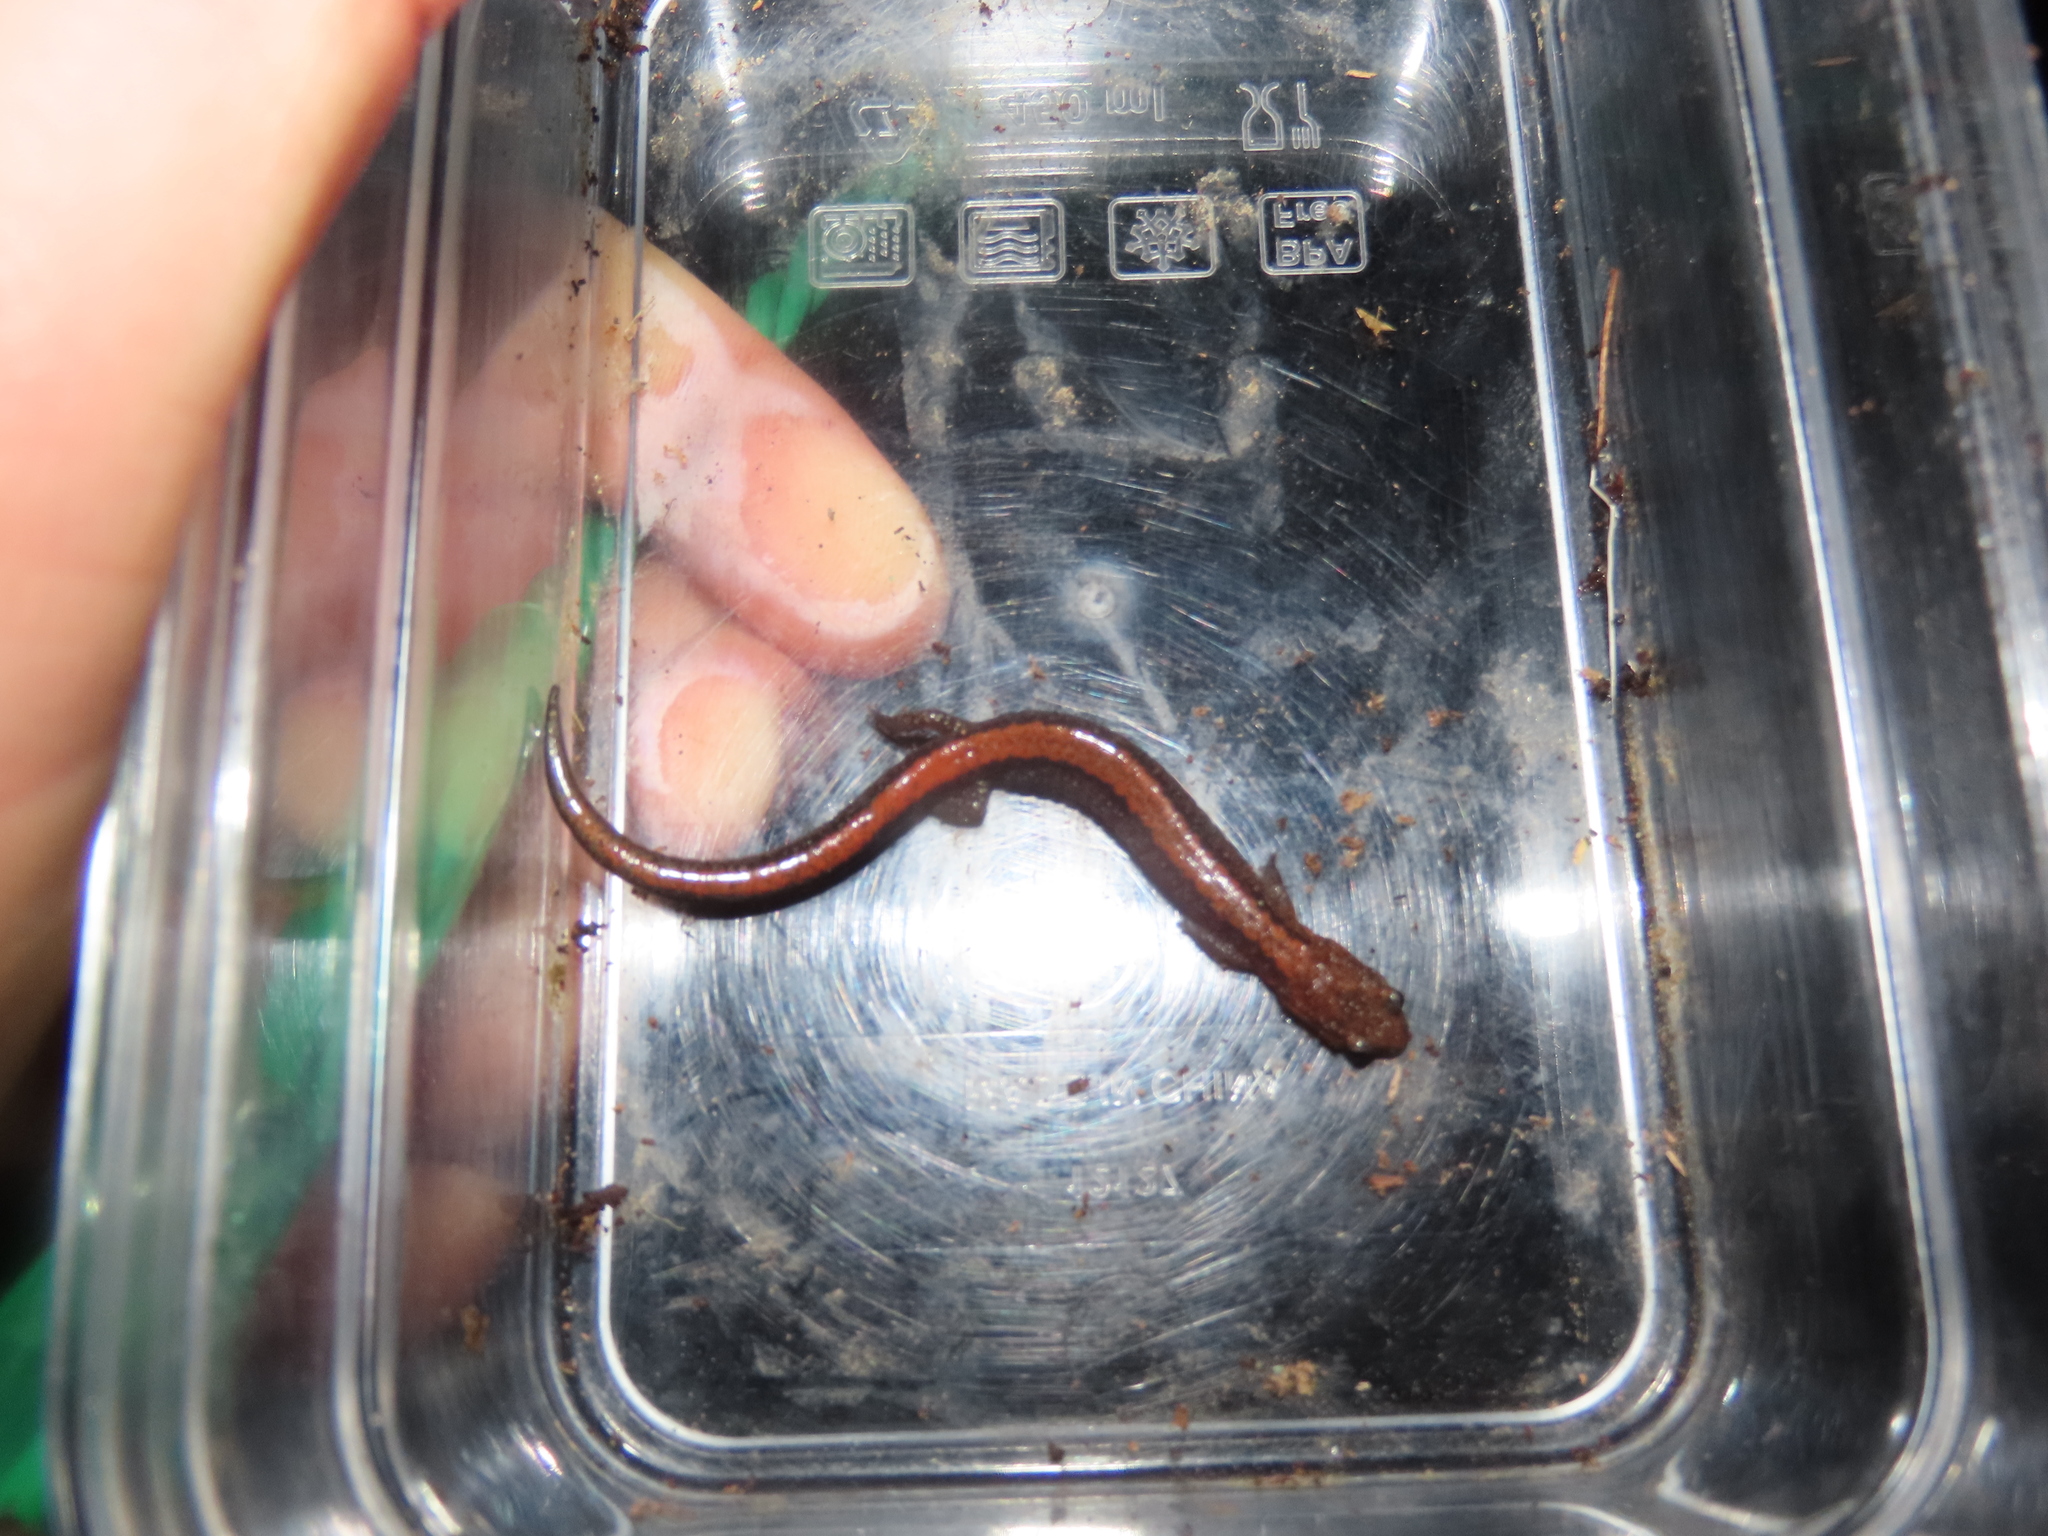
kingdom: Animalia
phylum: Chordata
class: Amphibia
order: Caudata
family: Plethodontidae
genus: Plethodon
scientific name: Plethodon cinereus
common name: Redback salamander
